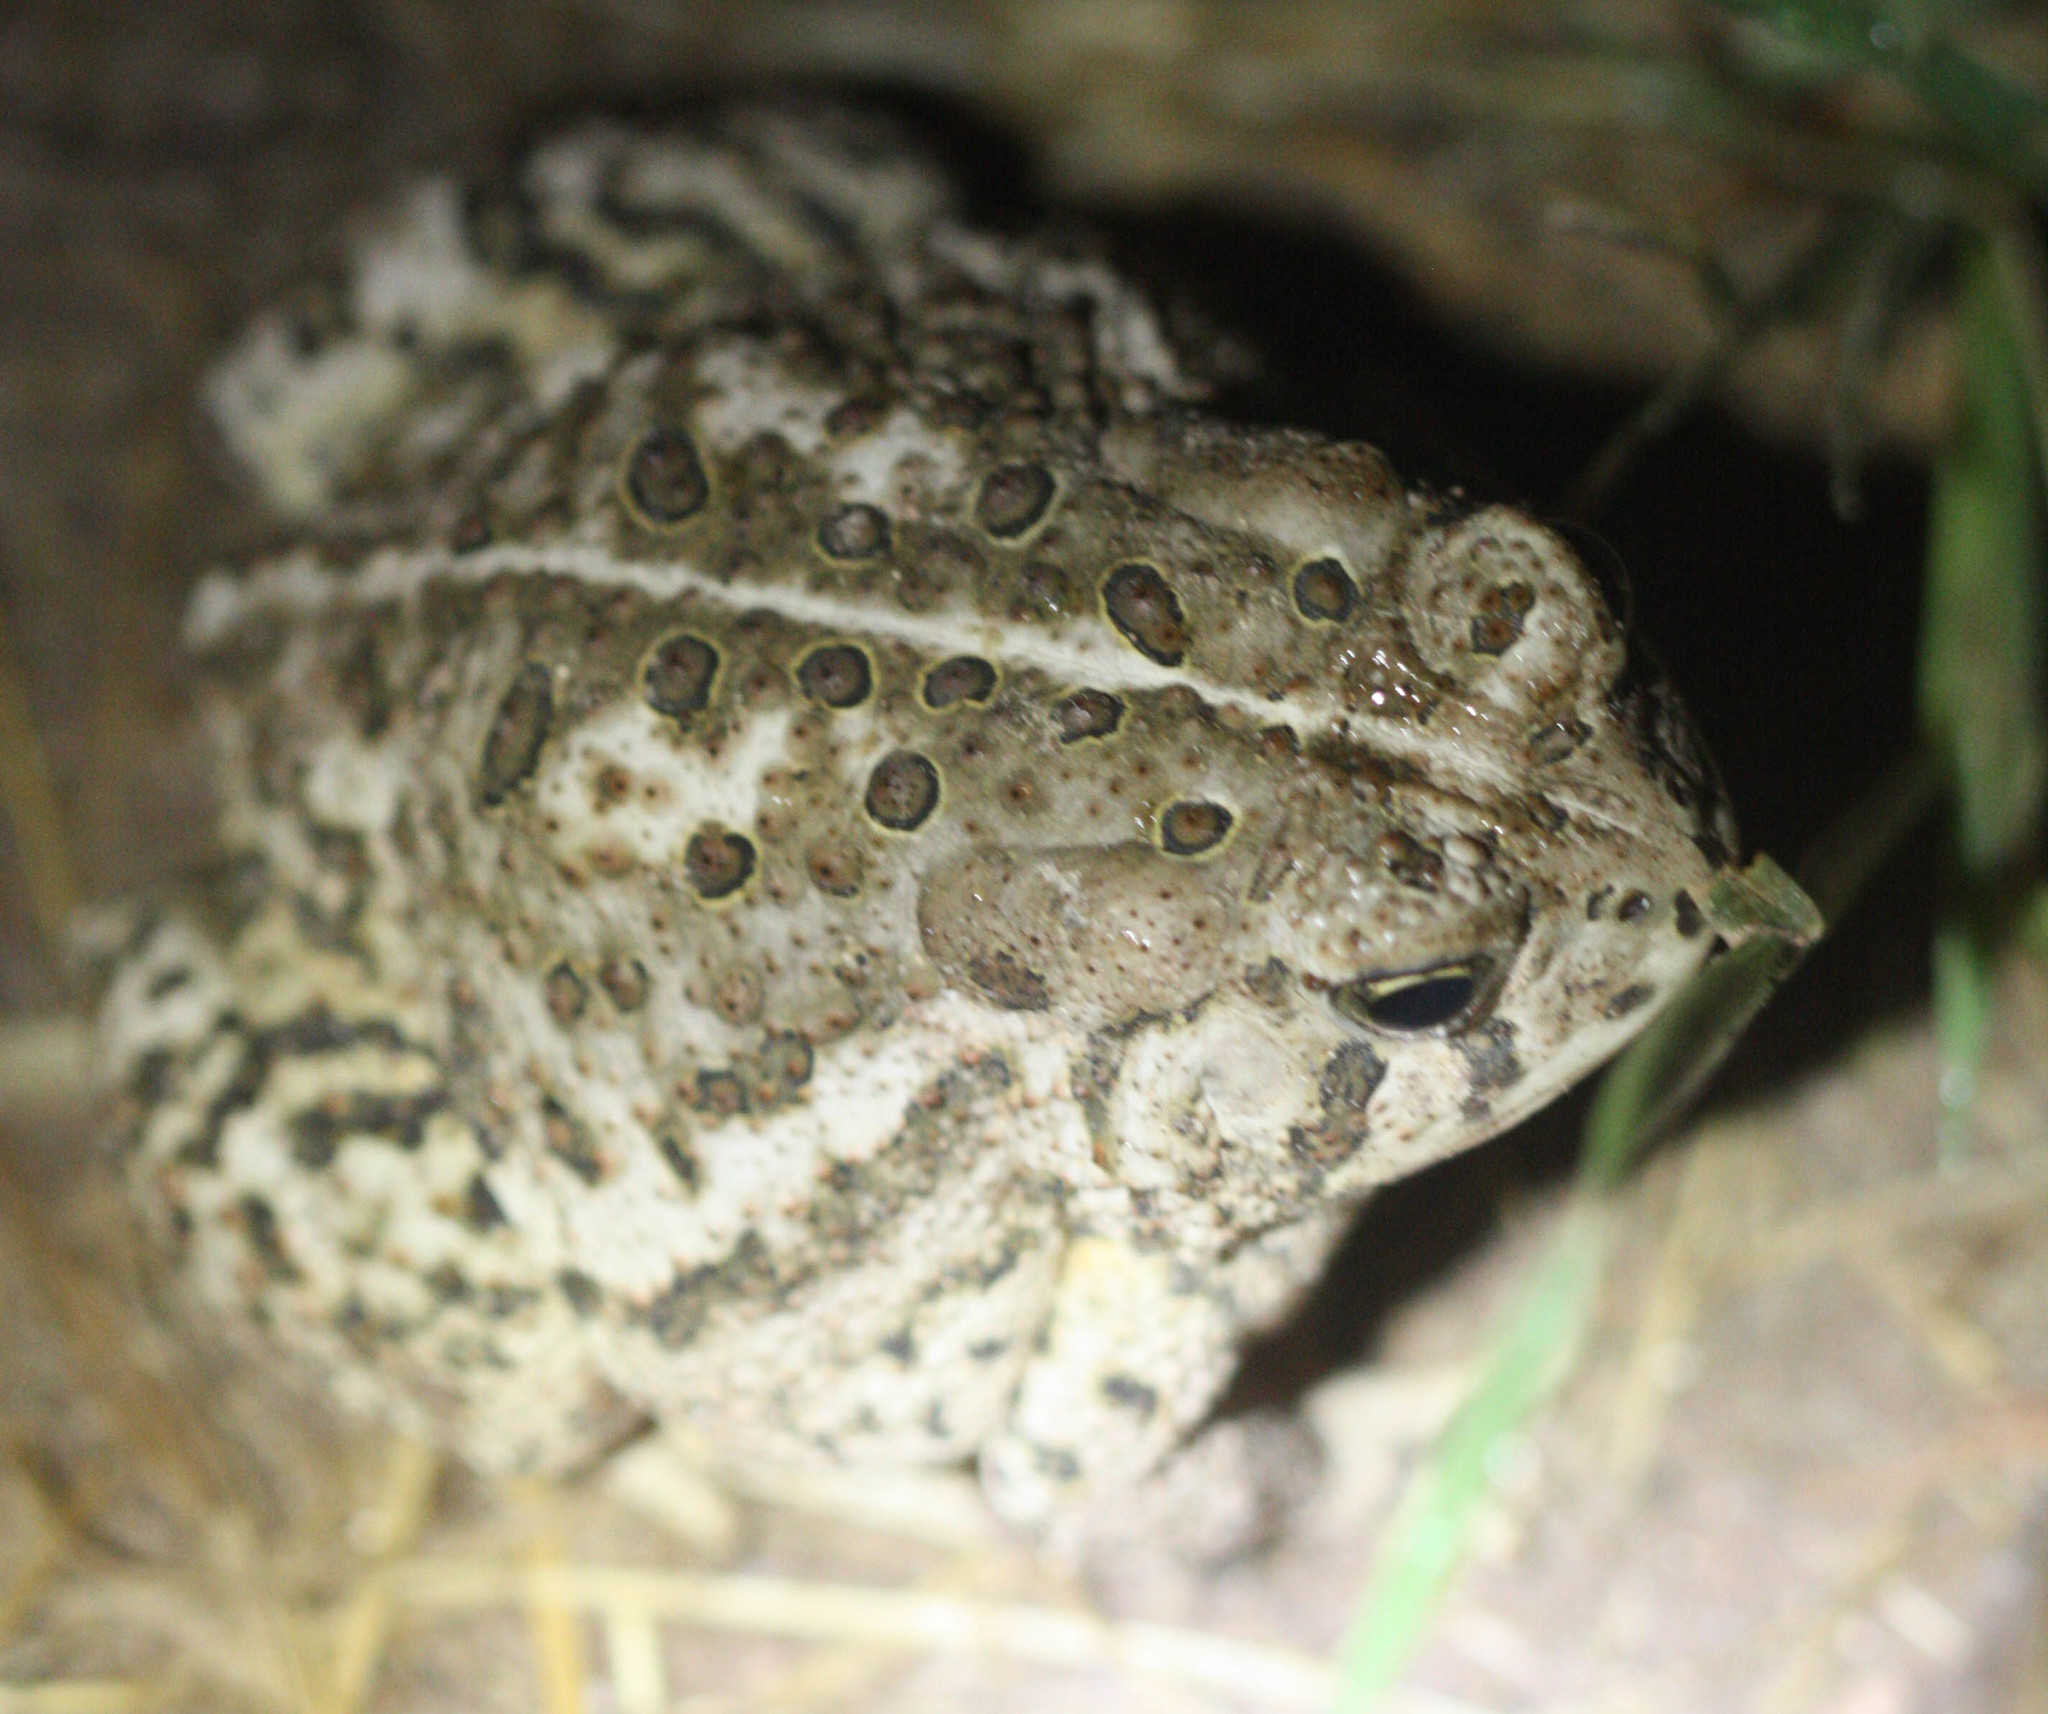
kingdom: Animalia
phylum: Chordata
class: Amphibia
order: Anura
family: Bufonidae
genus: Anaxyrus
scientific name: Anaxyrus woodhousii
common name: Woodhouse's toad
